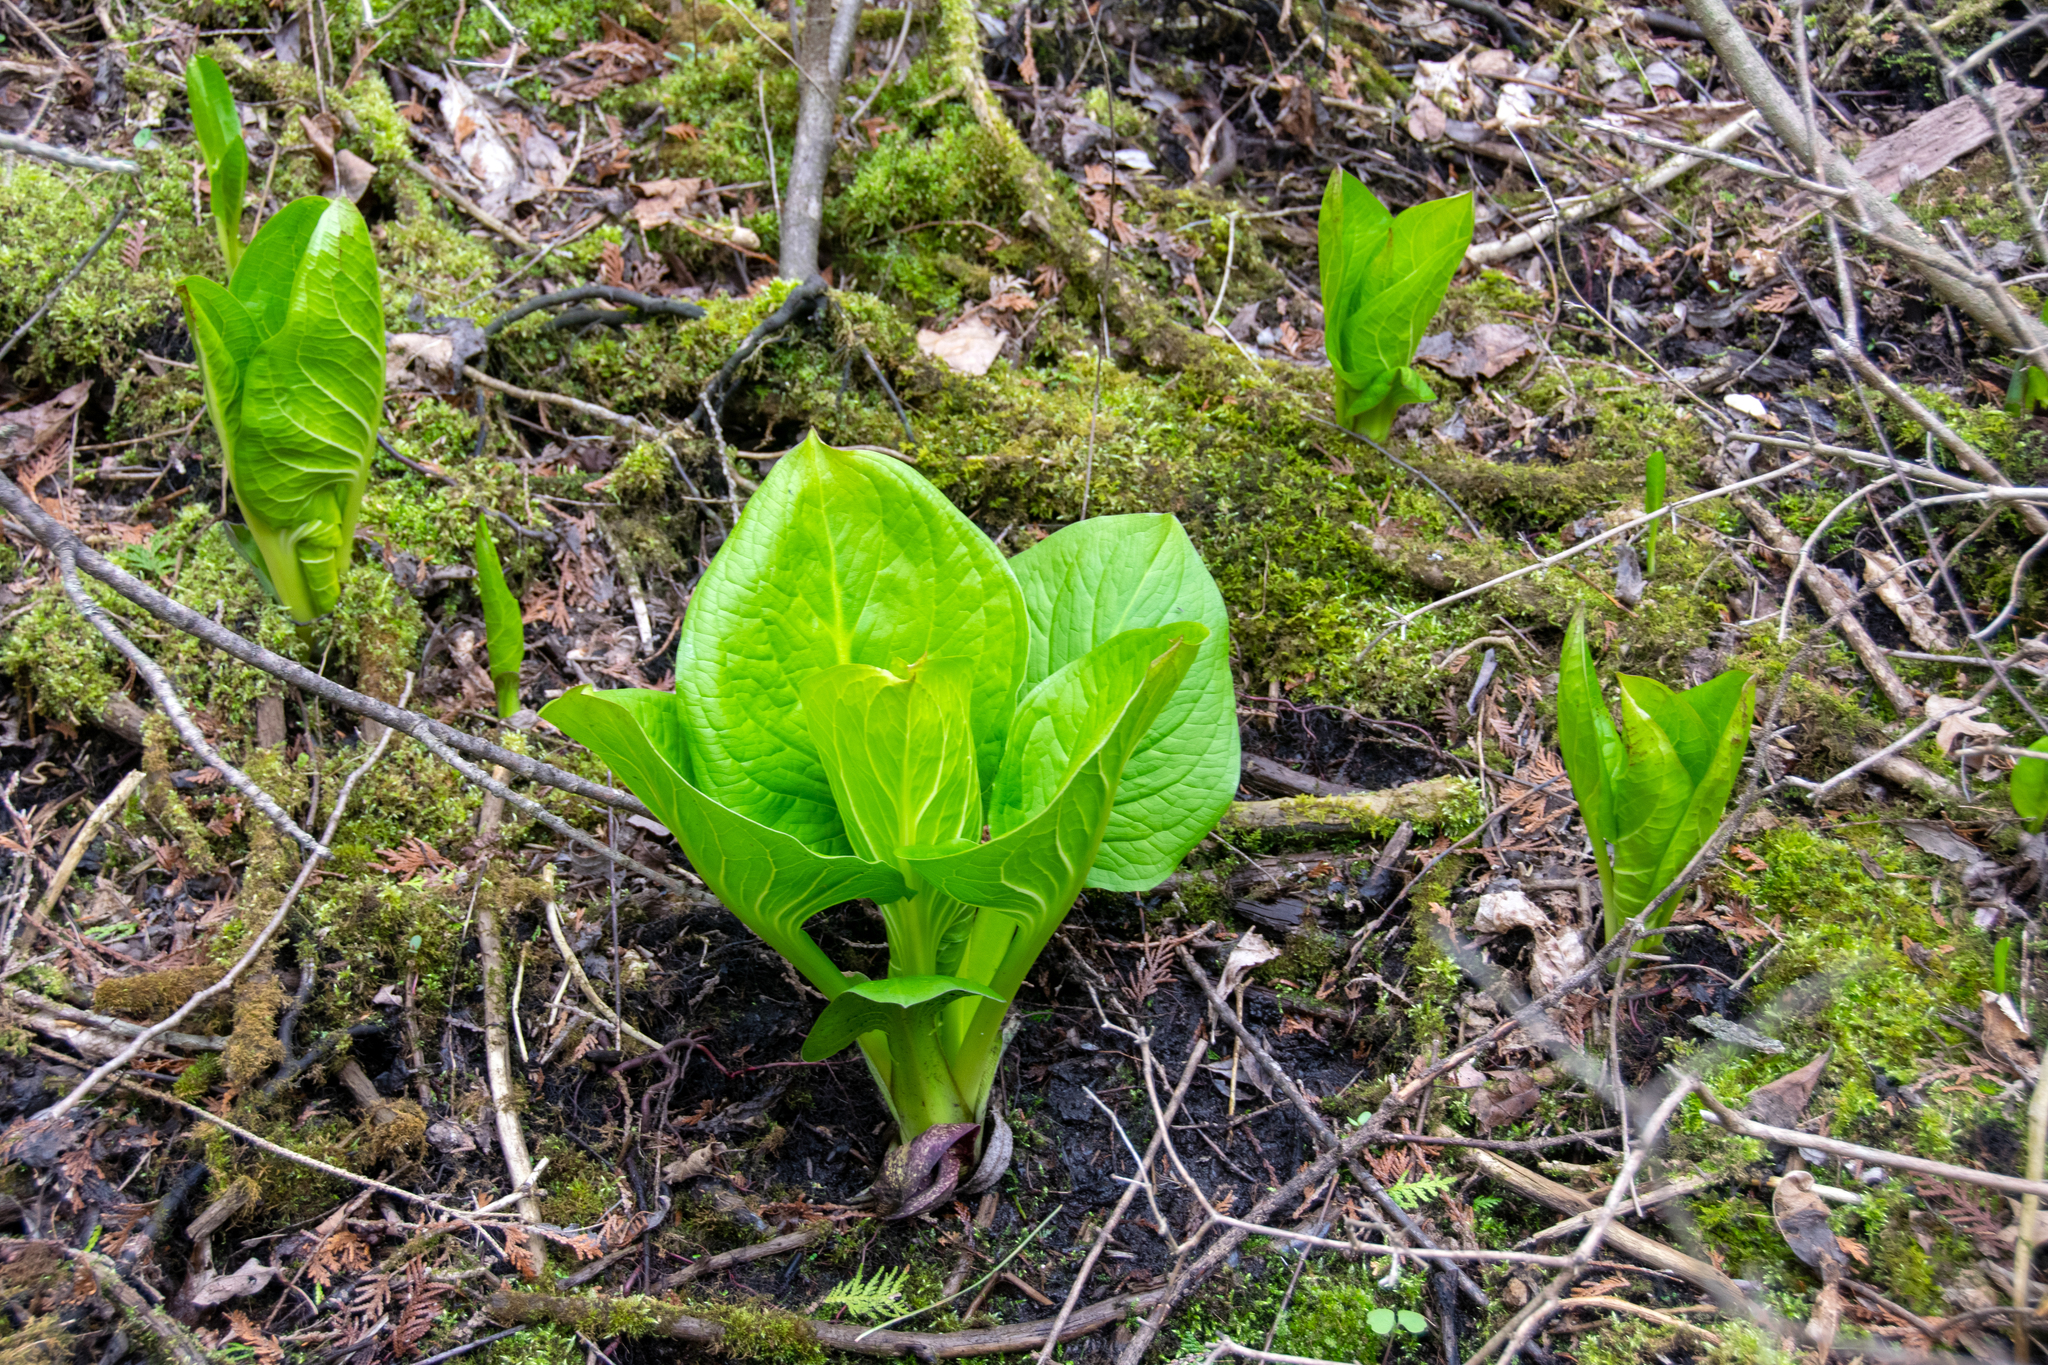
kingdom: Plantae
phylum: Tracheophyta
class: Liliopsida
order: Alismatales
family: Araceae
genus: Symplocarpus
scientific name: Symplocarpus foetidus
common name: Eastern skunk cabbage
